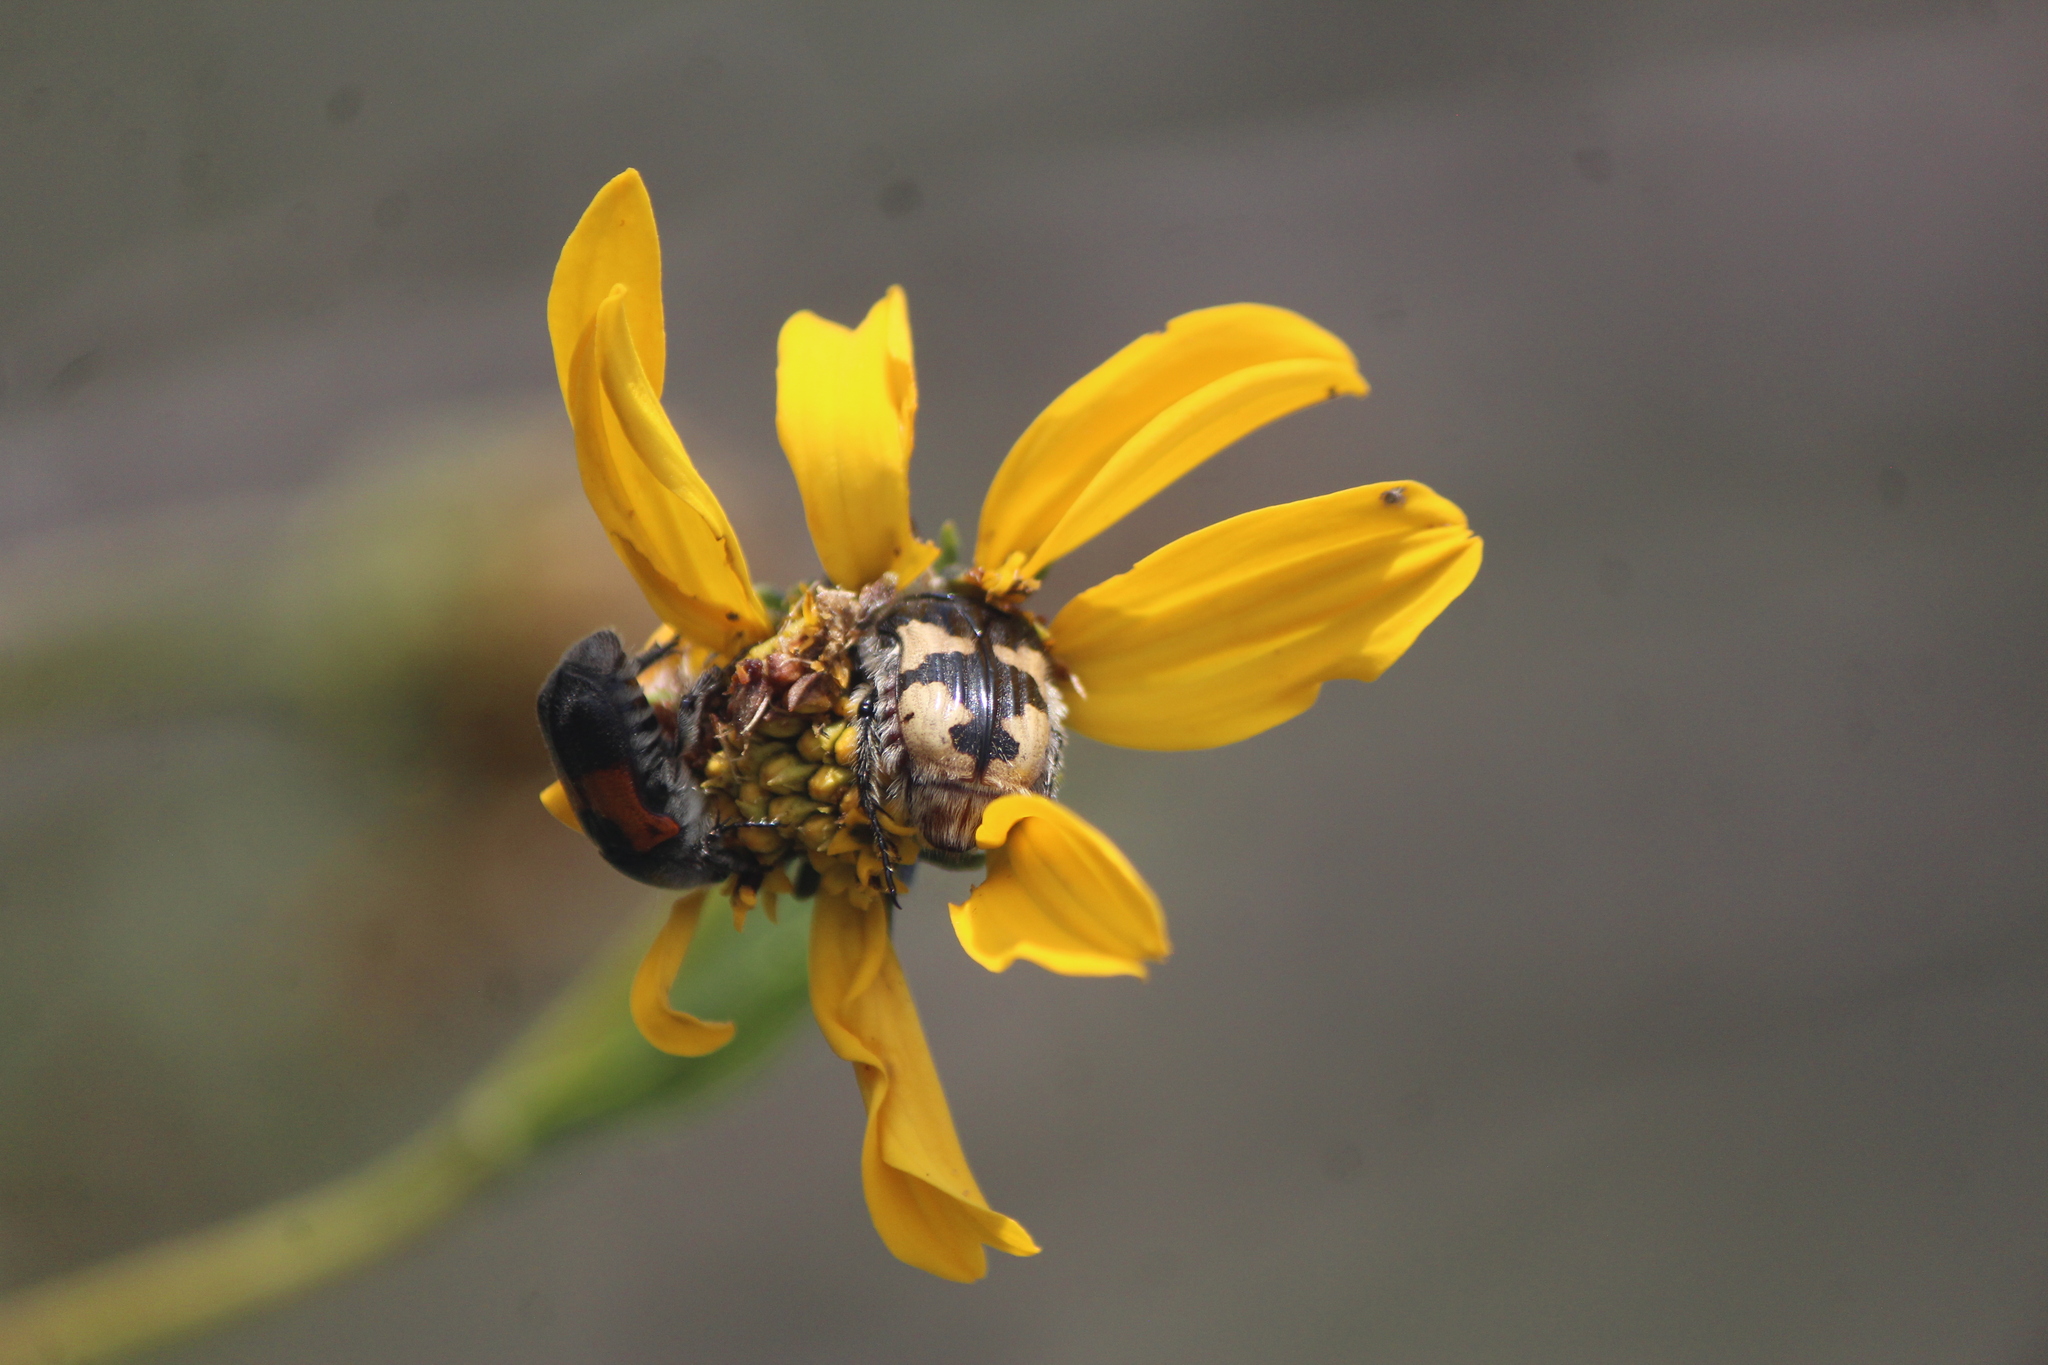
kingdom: Animalia
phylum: Arthropoda
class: Insecta
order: Coleoptera
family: Scarabaeidae
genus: Euphoria
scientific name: Euphoria basalis
